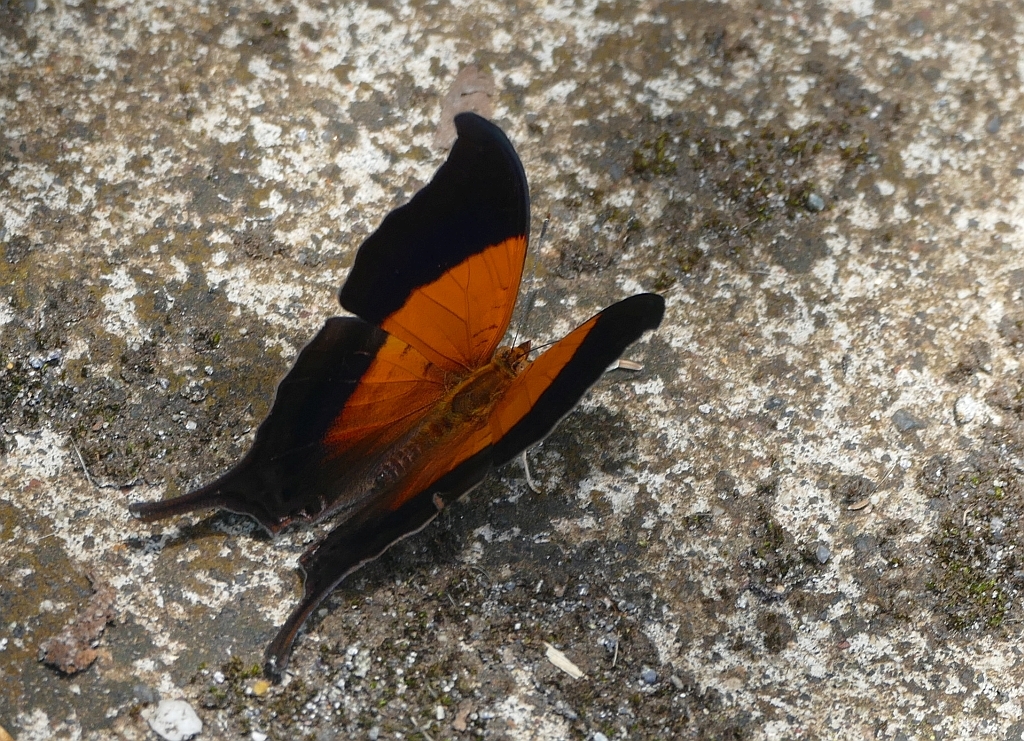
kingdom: Animalia
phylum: Arthropoda
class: Insecta
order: Lepidoptera
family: Nymphalidae
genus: Marpesia
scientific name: Marpesia furcula
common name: Sunset daggerwing
